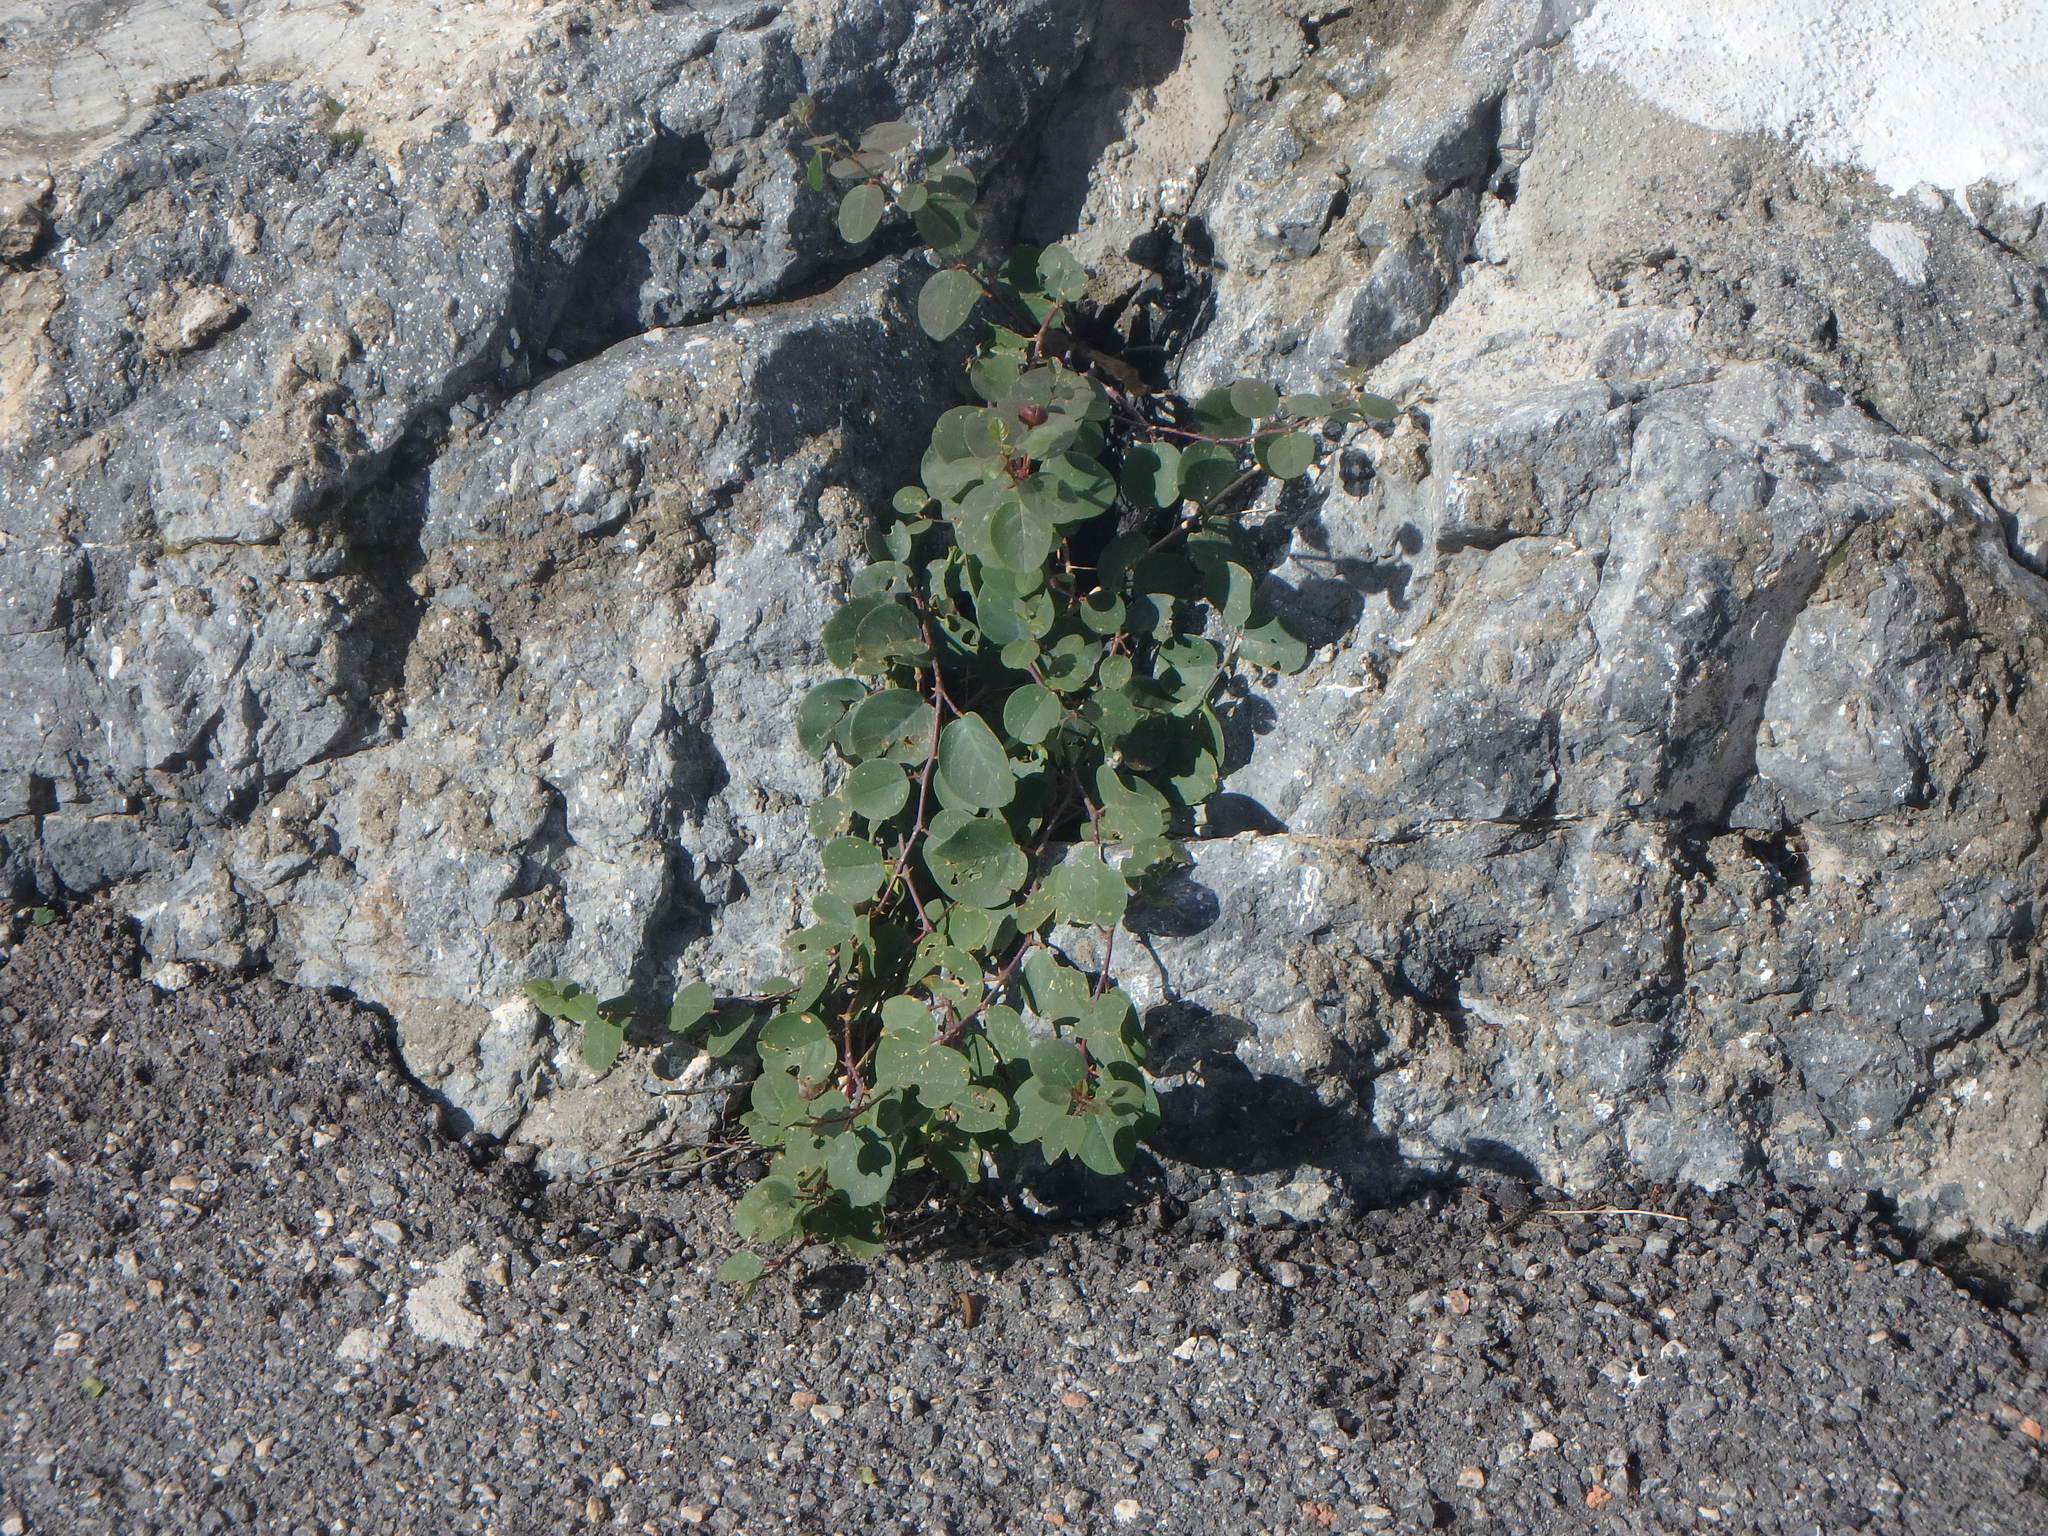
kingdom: Plantae
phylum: Tracheophyta
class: Magnoliopsida
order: Brassicales
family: Capparaceae
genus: Capparis
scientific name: Capparis spinosa
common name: Caper
